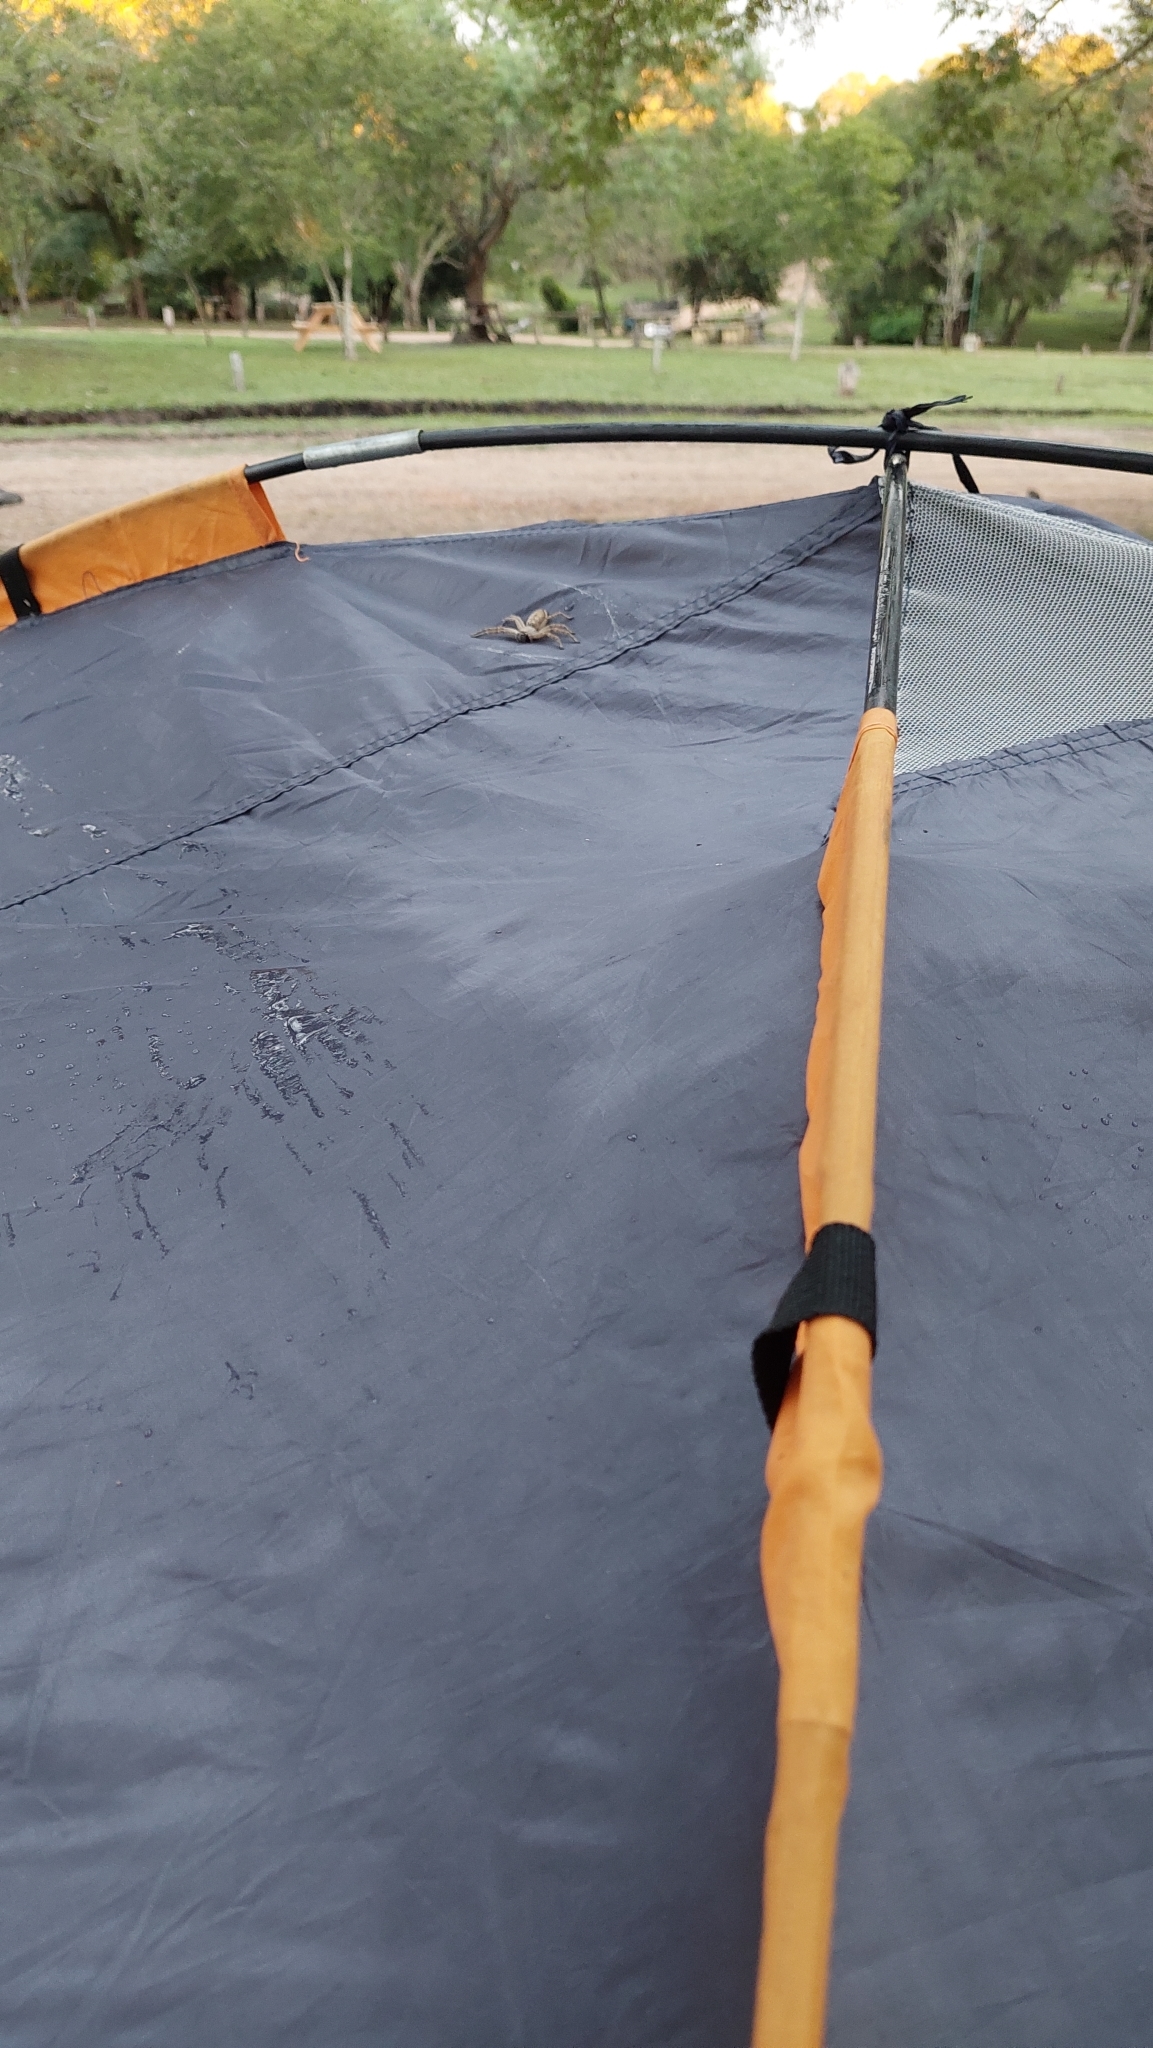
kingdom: Animalia
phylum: Arthropoda
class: Arachnida
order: Araneae
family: Sparassidae
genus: Polybetes
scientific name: Polybetes rapidus
